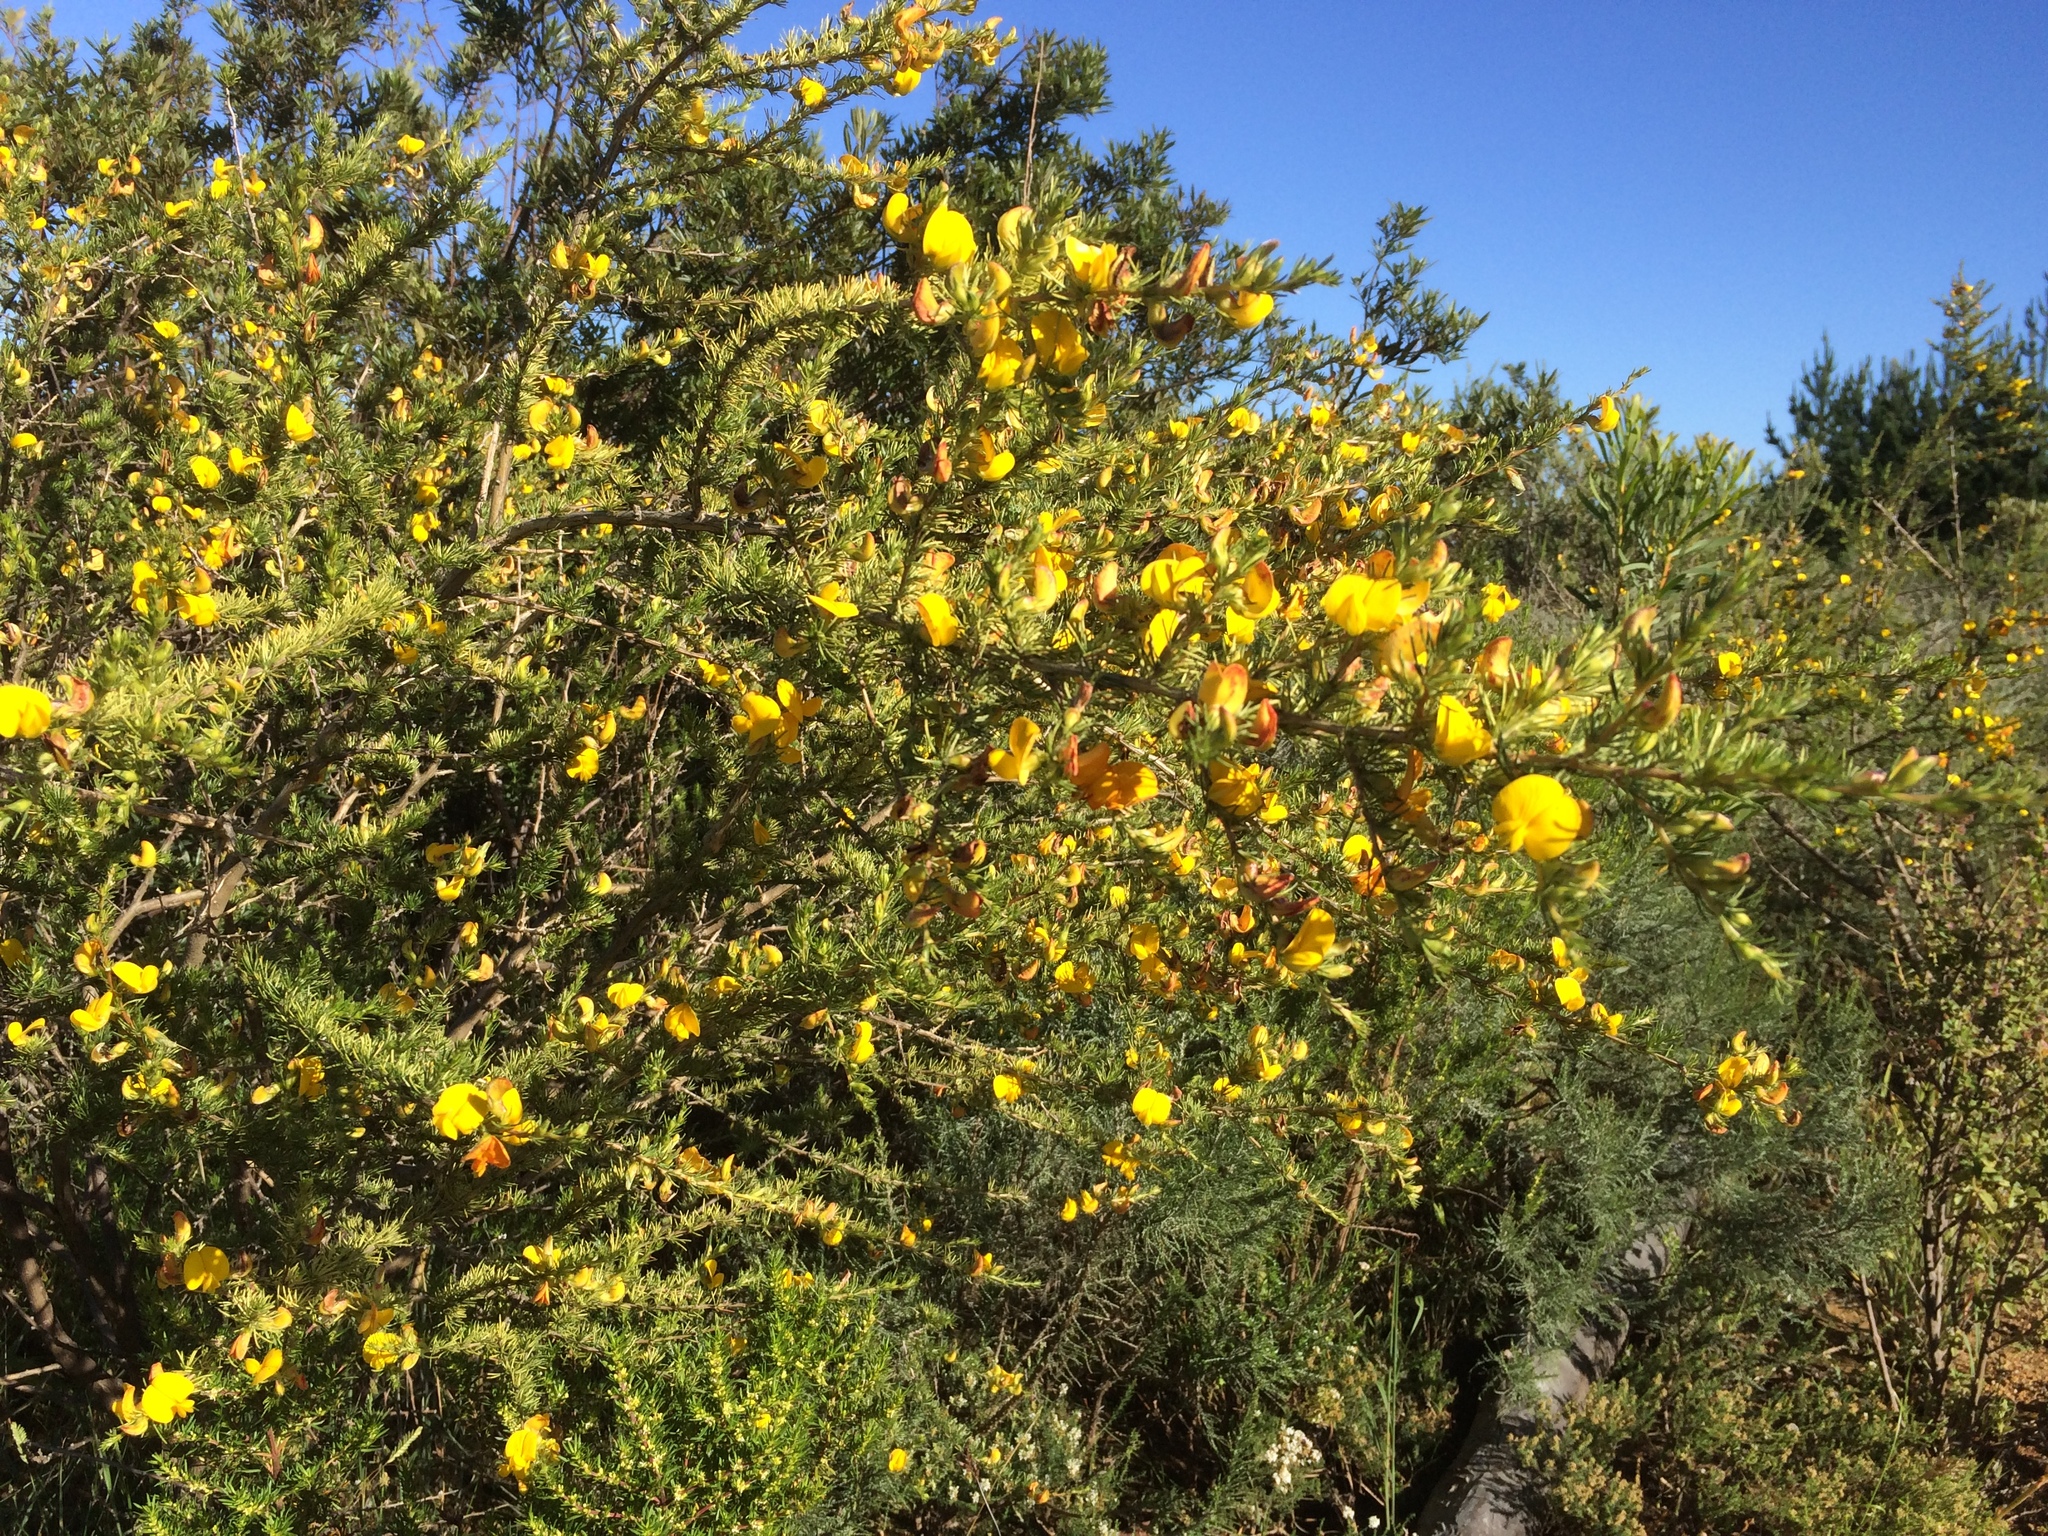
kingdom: Plantae
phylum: Tracheophyta
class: Magnoliopsida
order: Fabales
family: Fabaceae
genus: Aspalathus
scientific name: Aspalathus uniflora
